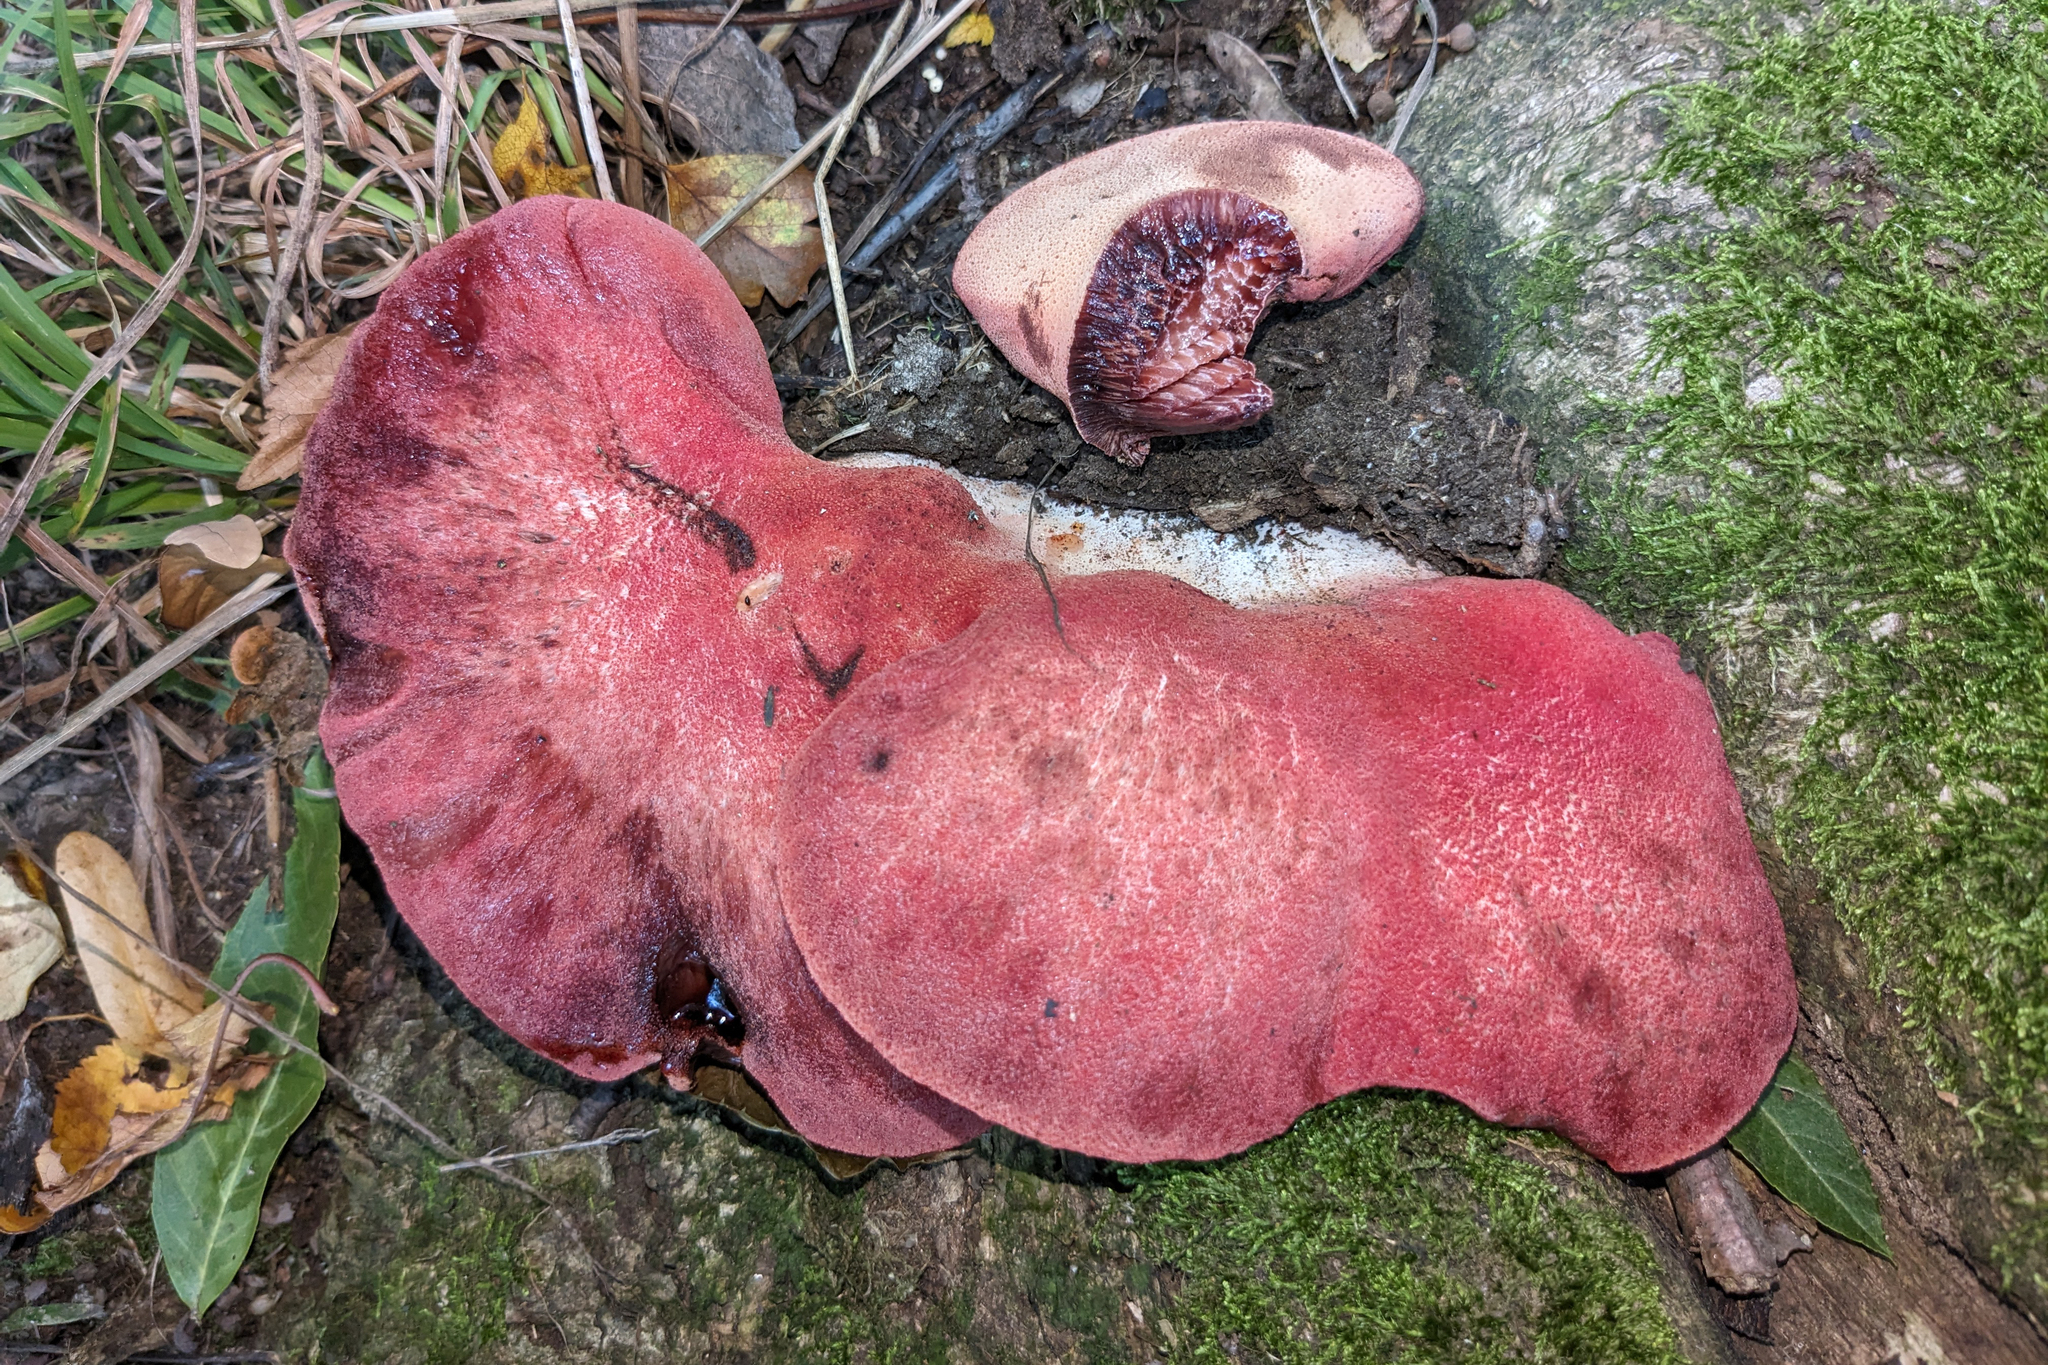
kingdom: Fungi
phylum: Basidiomycota
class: Agaricomycetes
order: Agaricales
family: Fistulinaceae
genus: Fistulina
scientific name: Fistulina hepatica
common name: Beef-steak fungus
